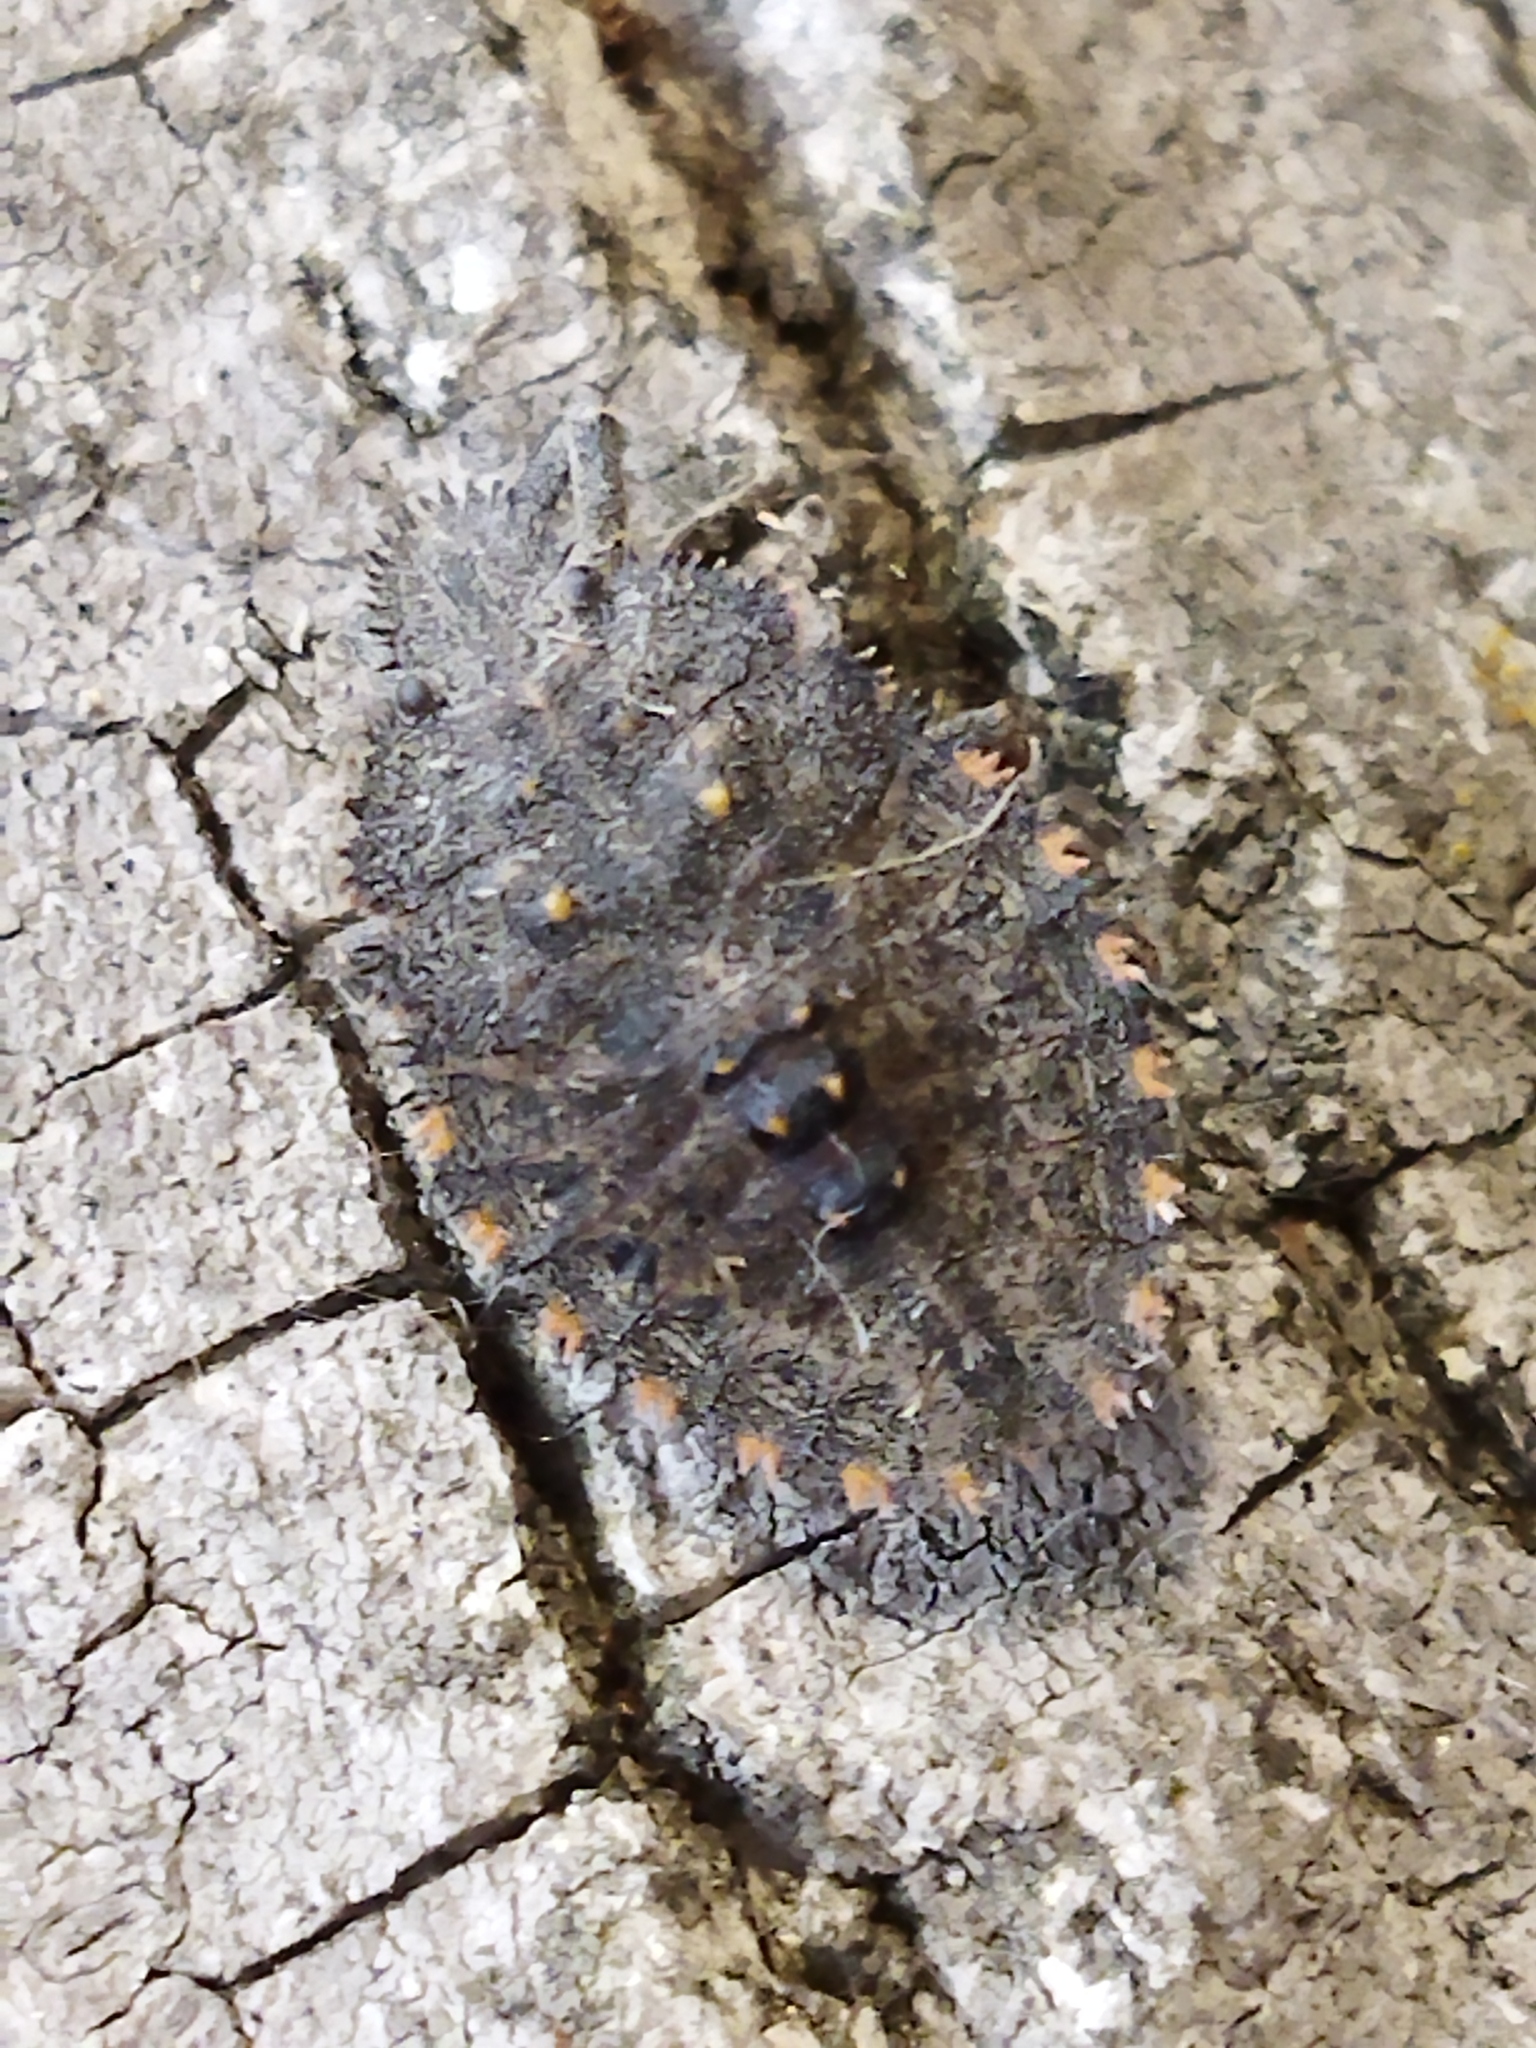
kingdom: Animalia
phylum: Arthropoda
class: Insecta
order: Hemiptera
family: Pentatomidae
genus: Mustha
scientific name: Mustha spinosula
